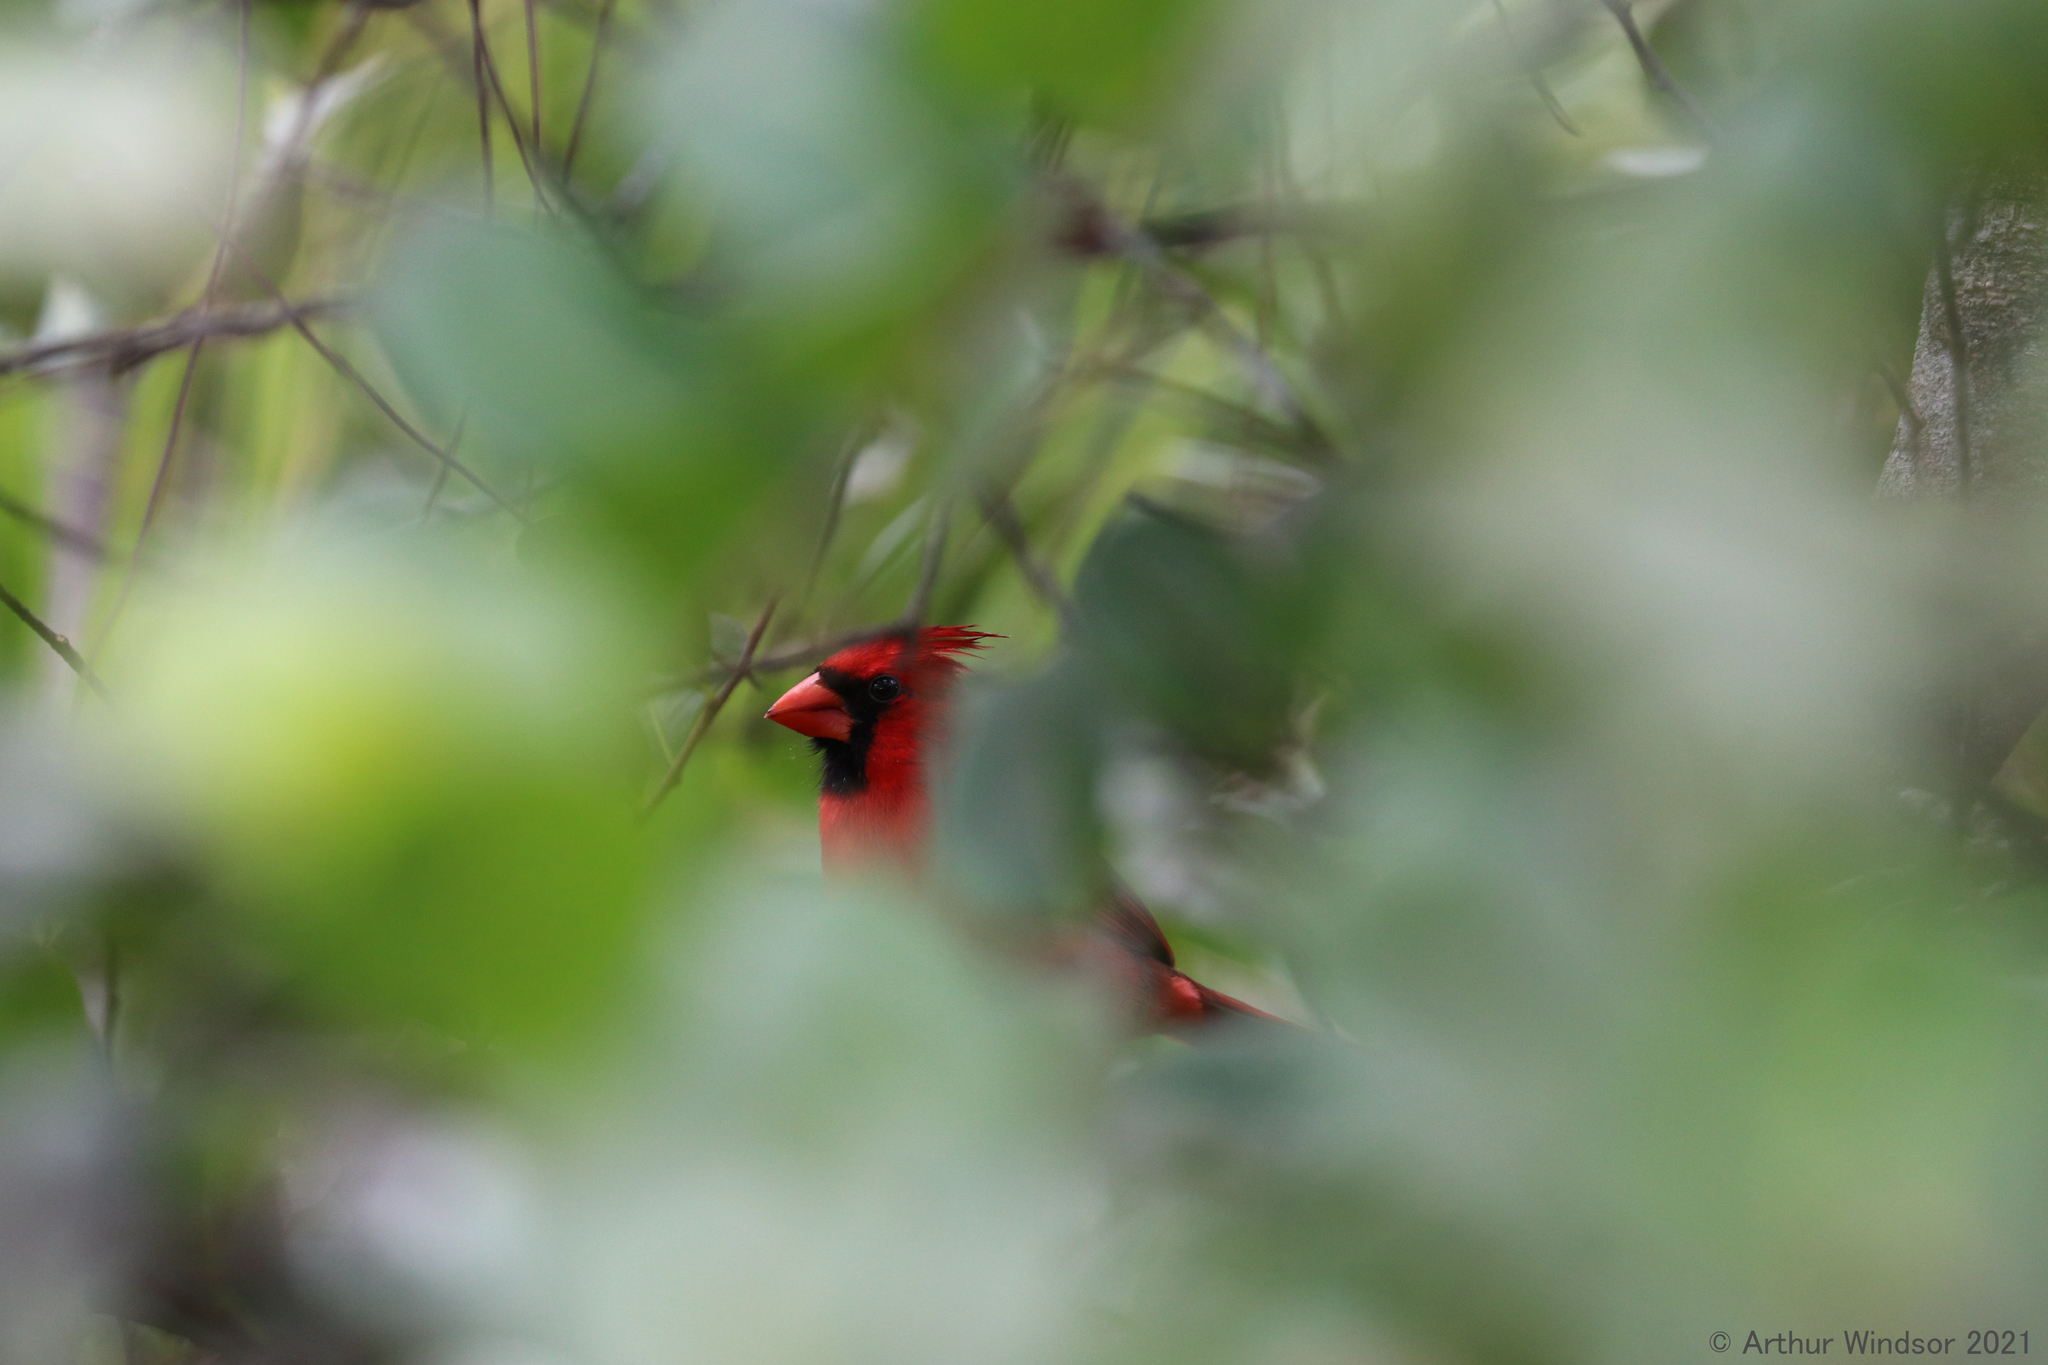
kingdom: Animalia
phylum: Chordata
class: Aves
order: Passeriformes
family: Cardinalidae
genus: Cardinalis
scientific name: Cardinalis cardinalis
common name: Northern cardinal
